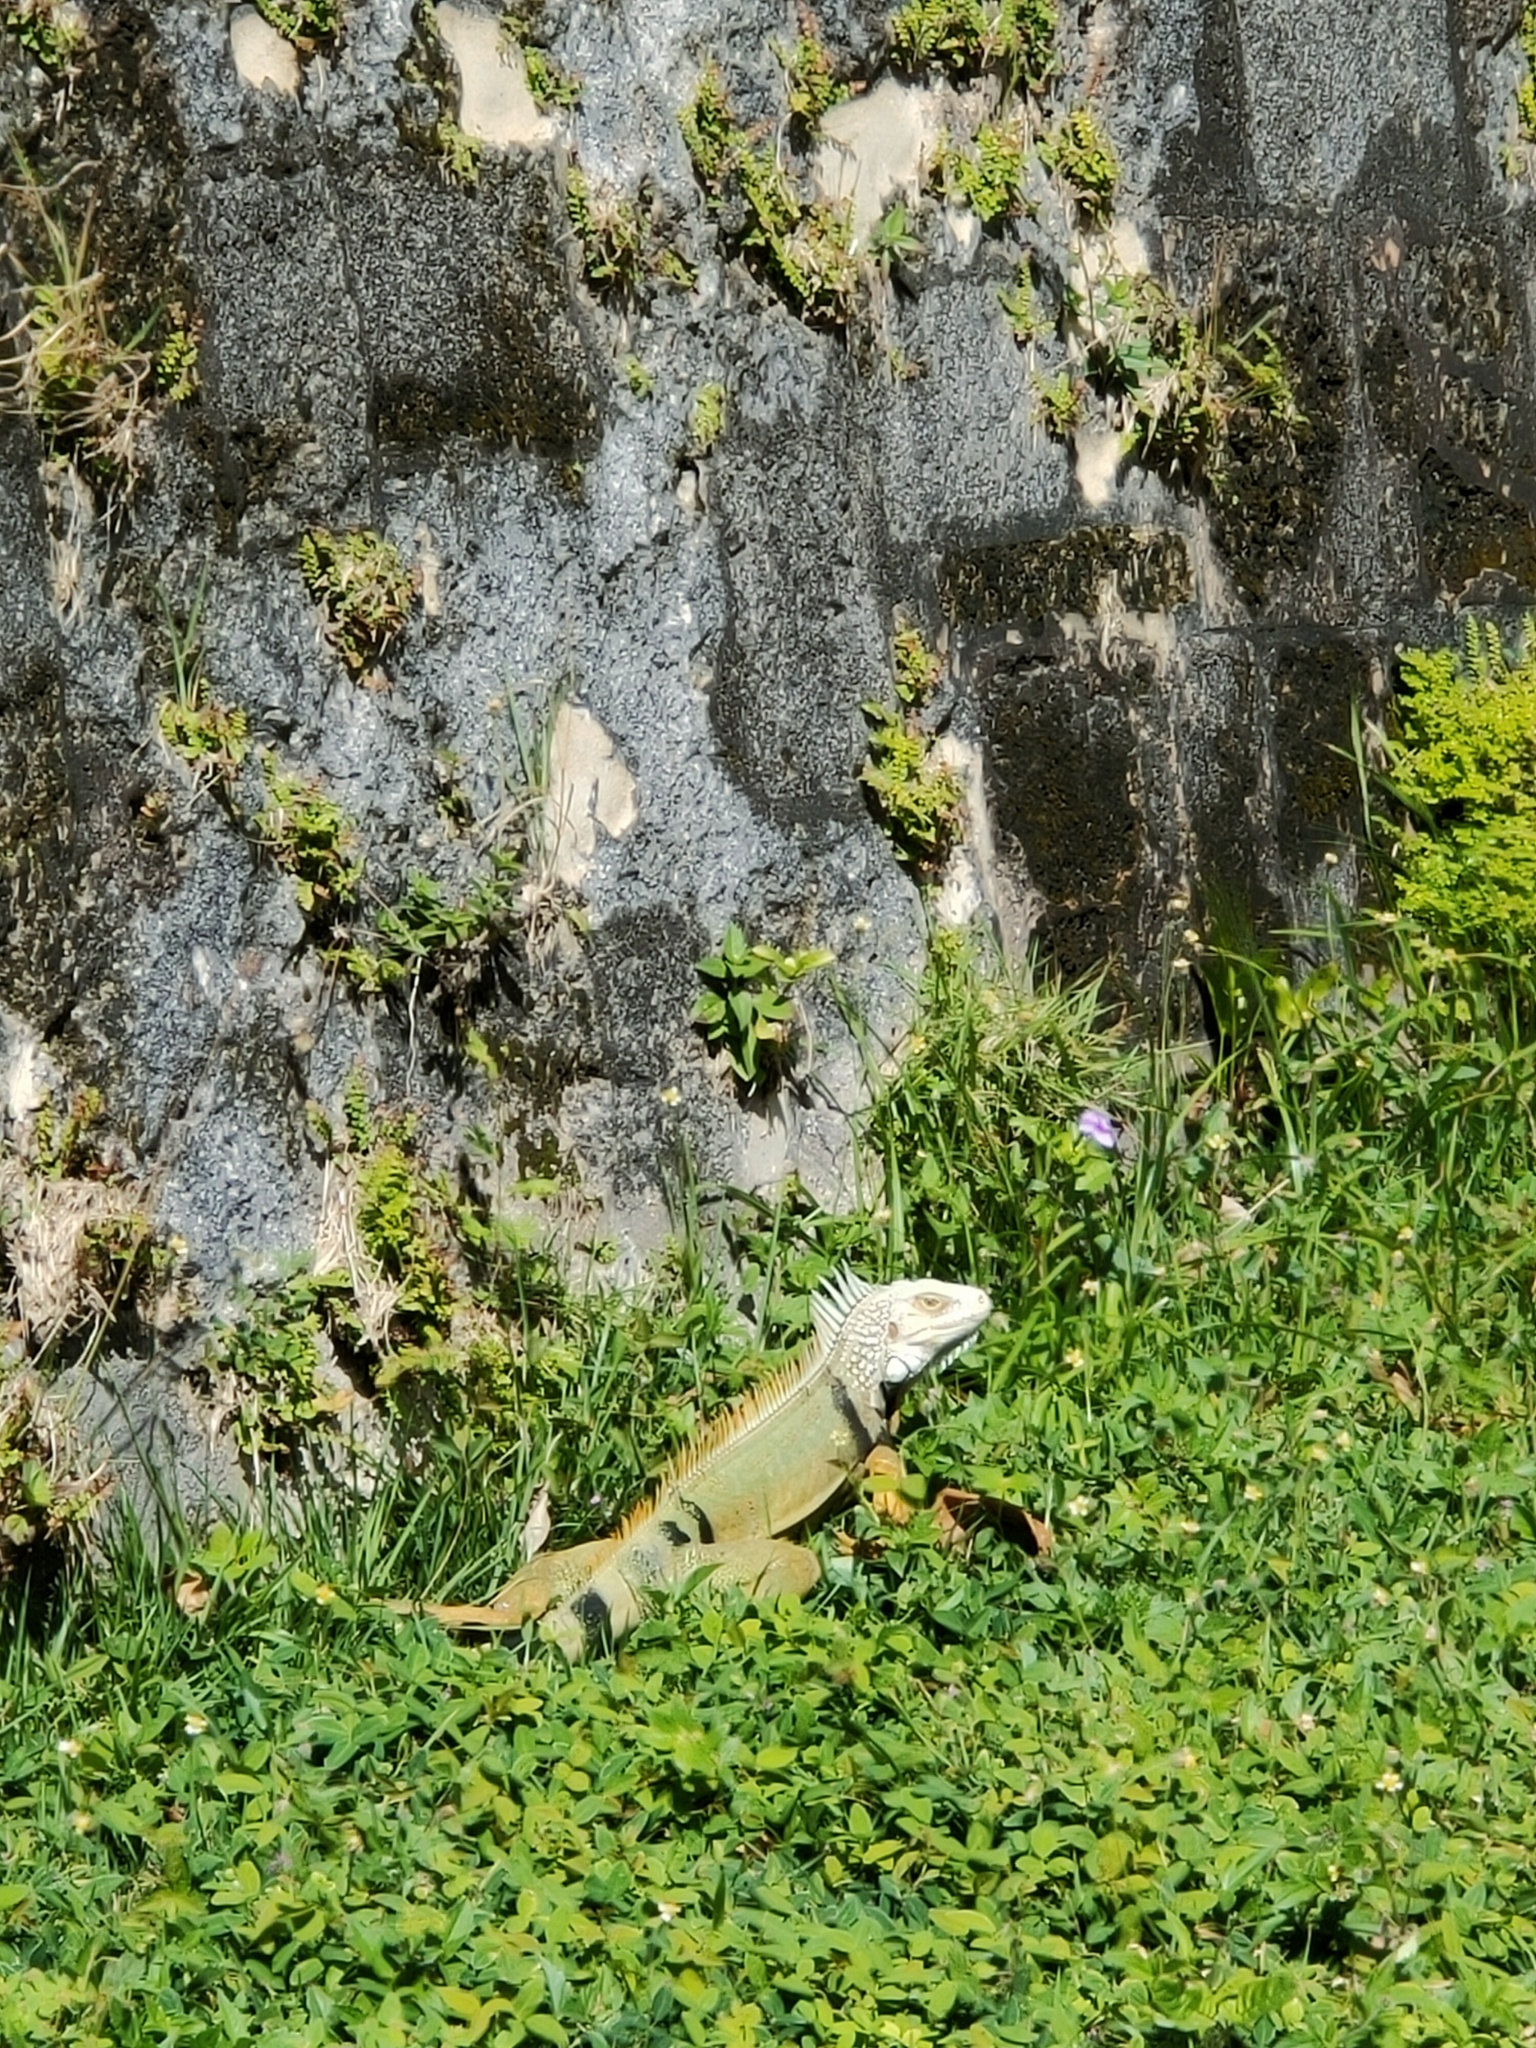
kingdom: Animalia
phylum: Chordata
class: Squamata
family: Iguanidae
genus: Iguana
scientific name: Iguana iguana
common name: Green iguana
